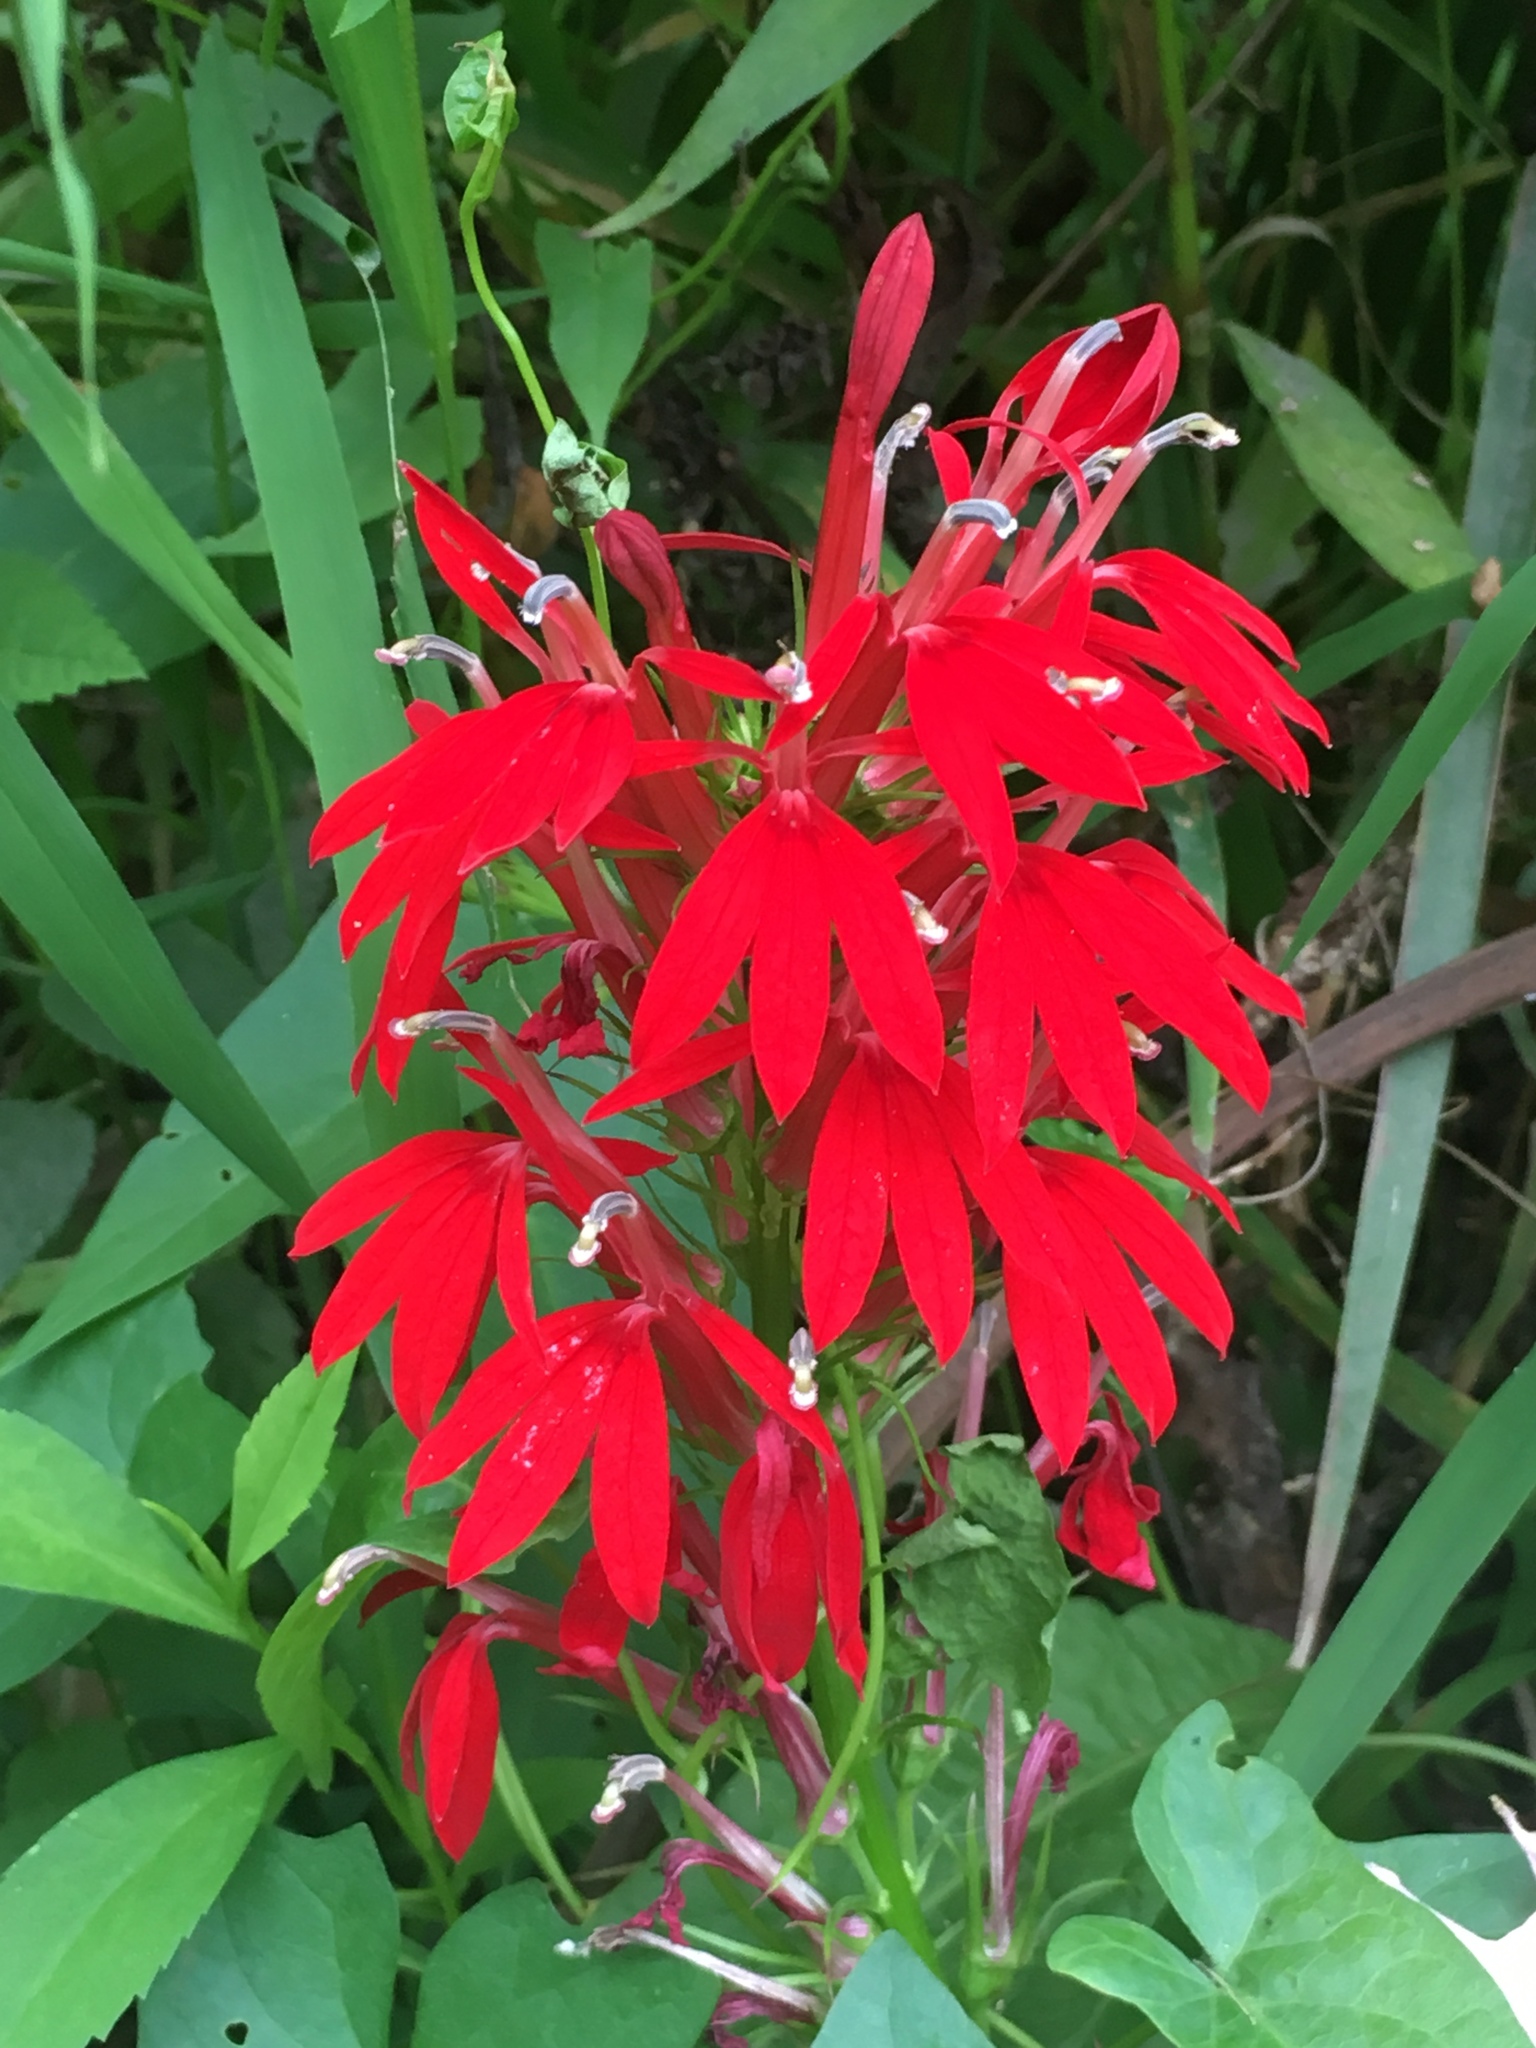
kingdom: Plantae
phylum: Tracheophyta
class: Magnoliopsida
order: Asterales
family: Campanulaceae
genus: Lobelia
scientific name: Lobelia cardinalis
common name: Cardinal flower
